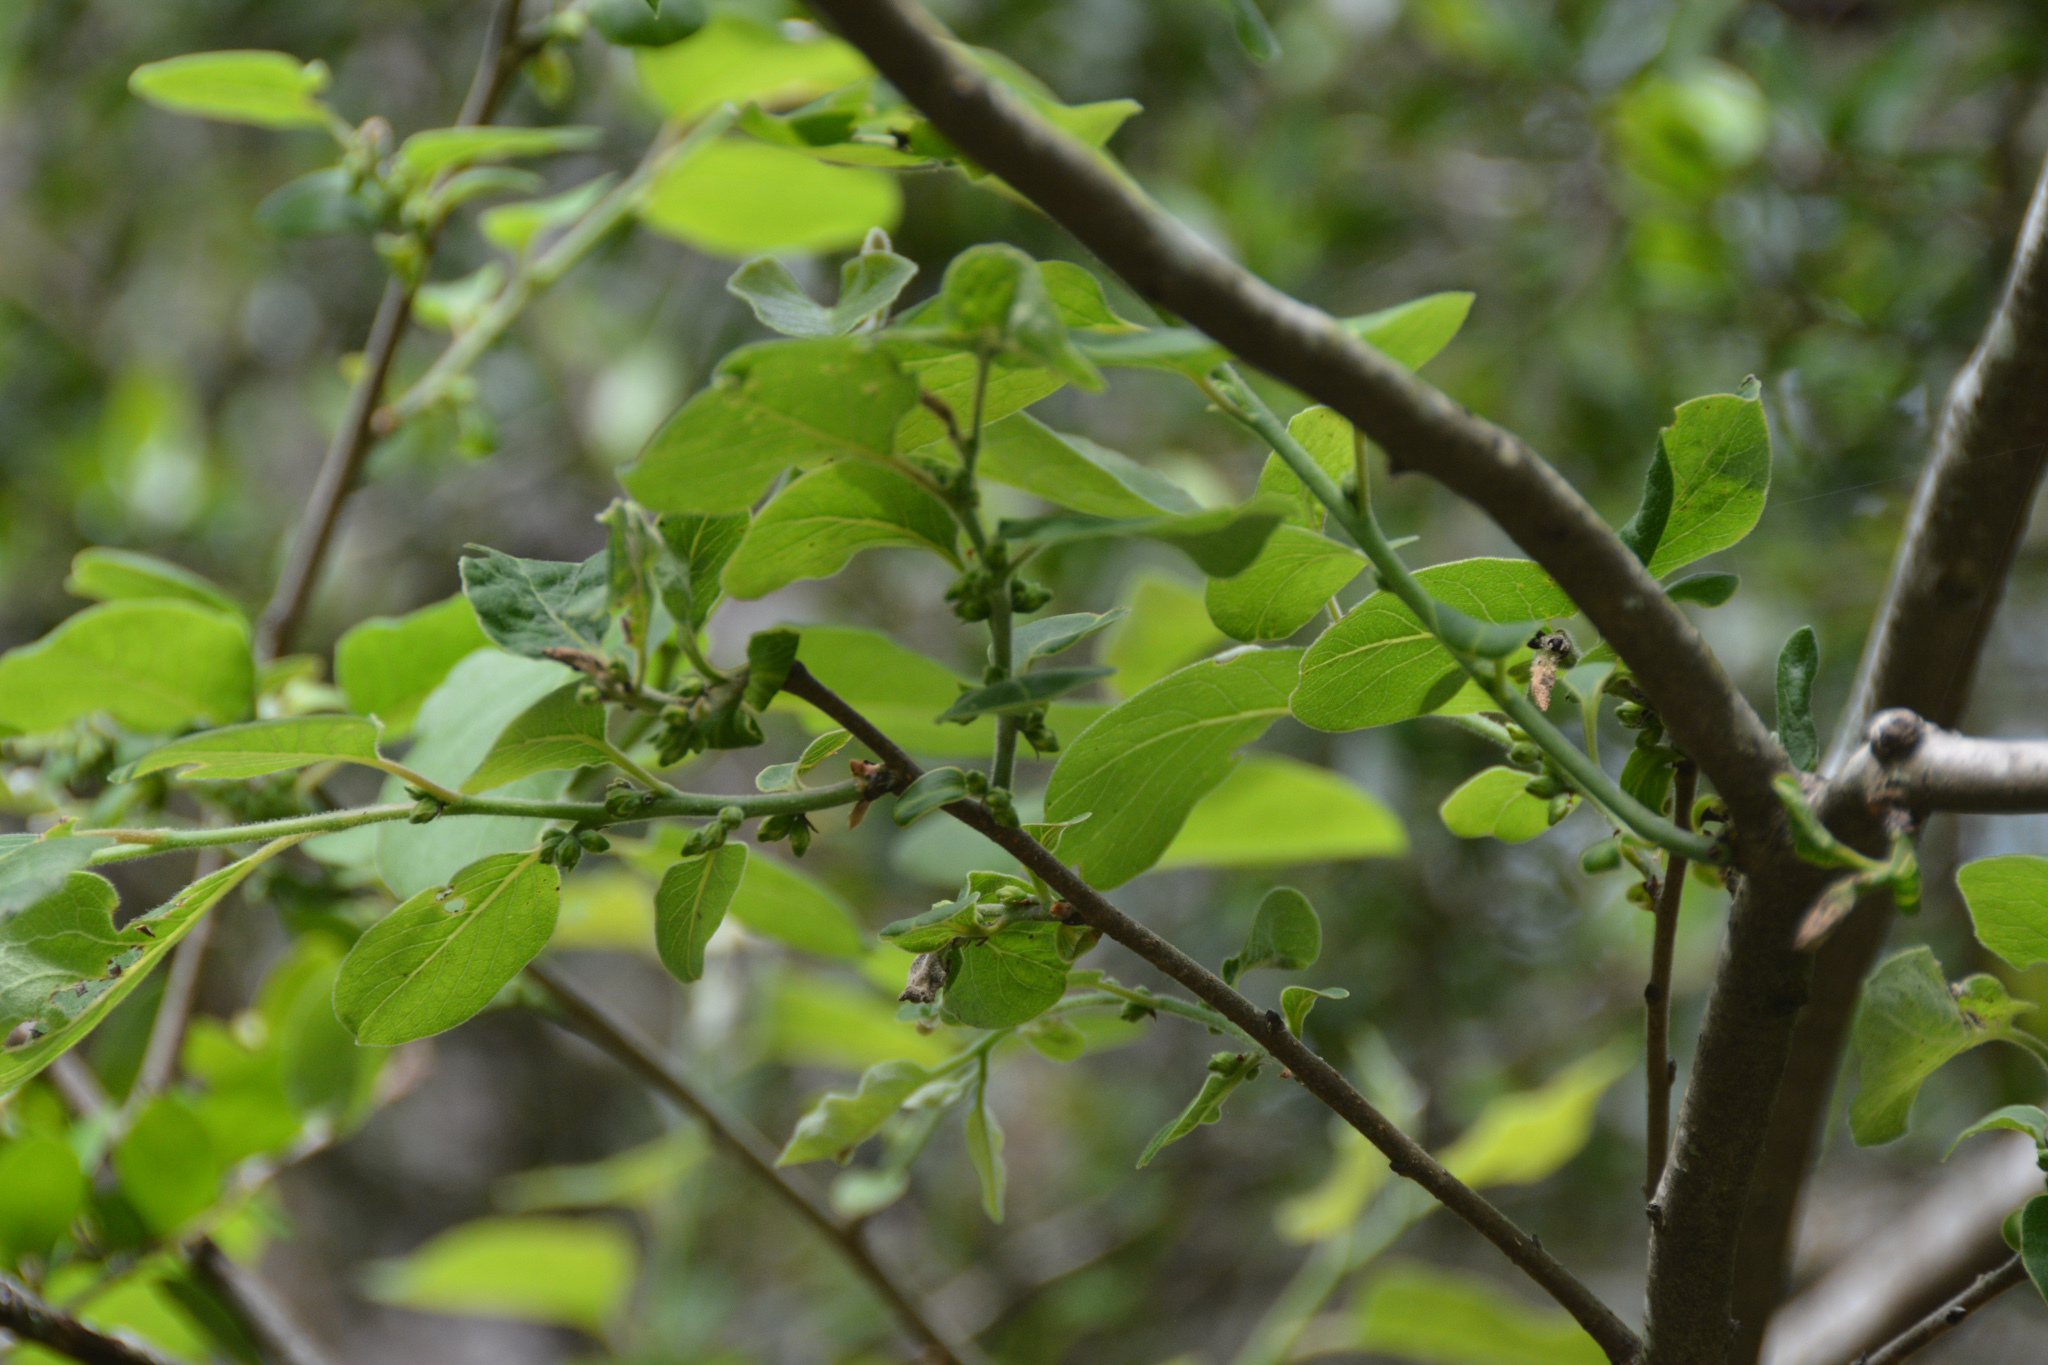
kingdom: Plantae
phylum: Tracheophyta
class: Magnoliopsida
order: Ericales
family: Ebenaceae
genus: Diospyros
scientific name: Diospyros virginiana
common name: Persimmon
